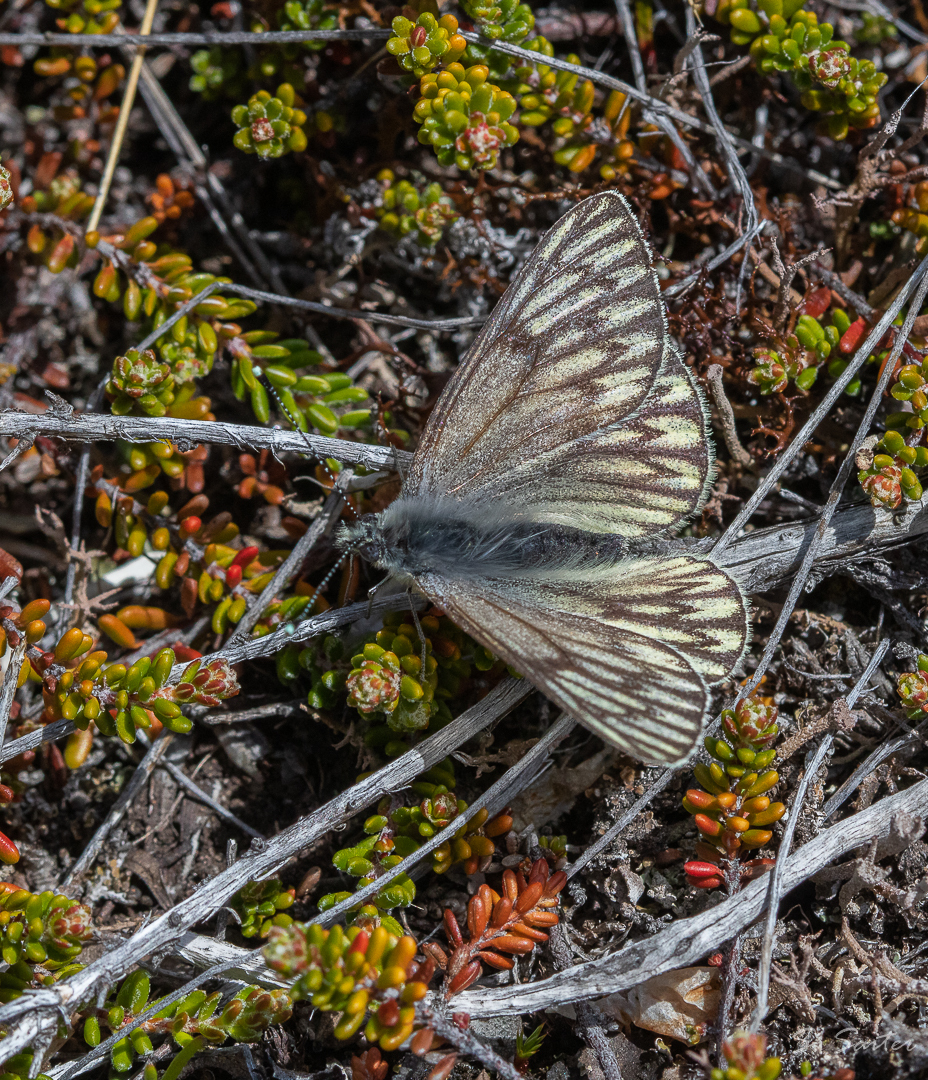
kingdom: Animalia
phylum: Arthropoda
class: Insecta
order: Lepidoptera
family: Pieridae
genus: Tatochila
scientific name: Tatochila theodice
